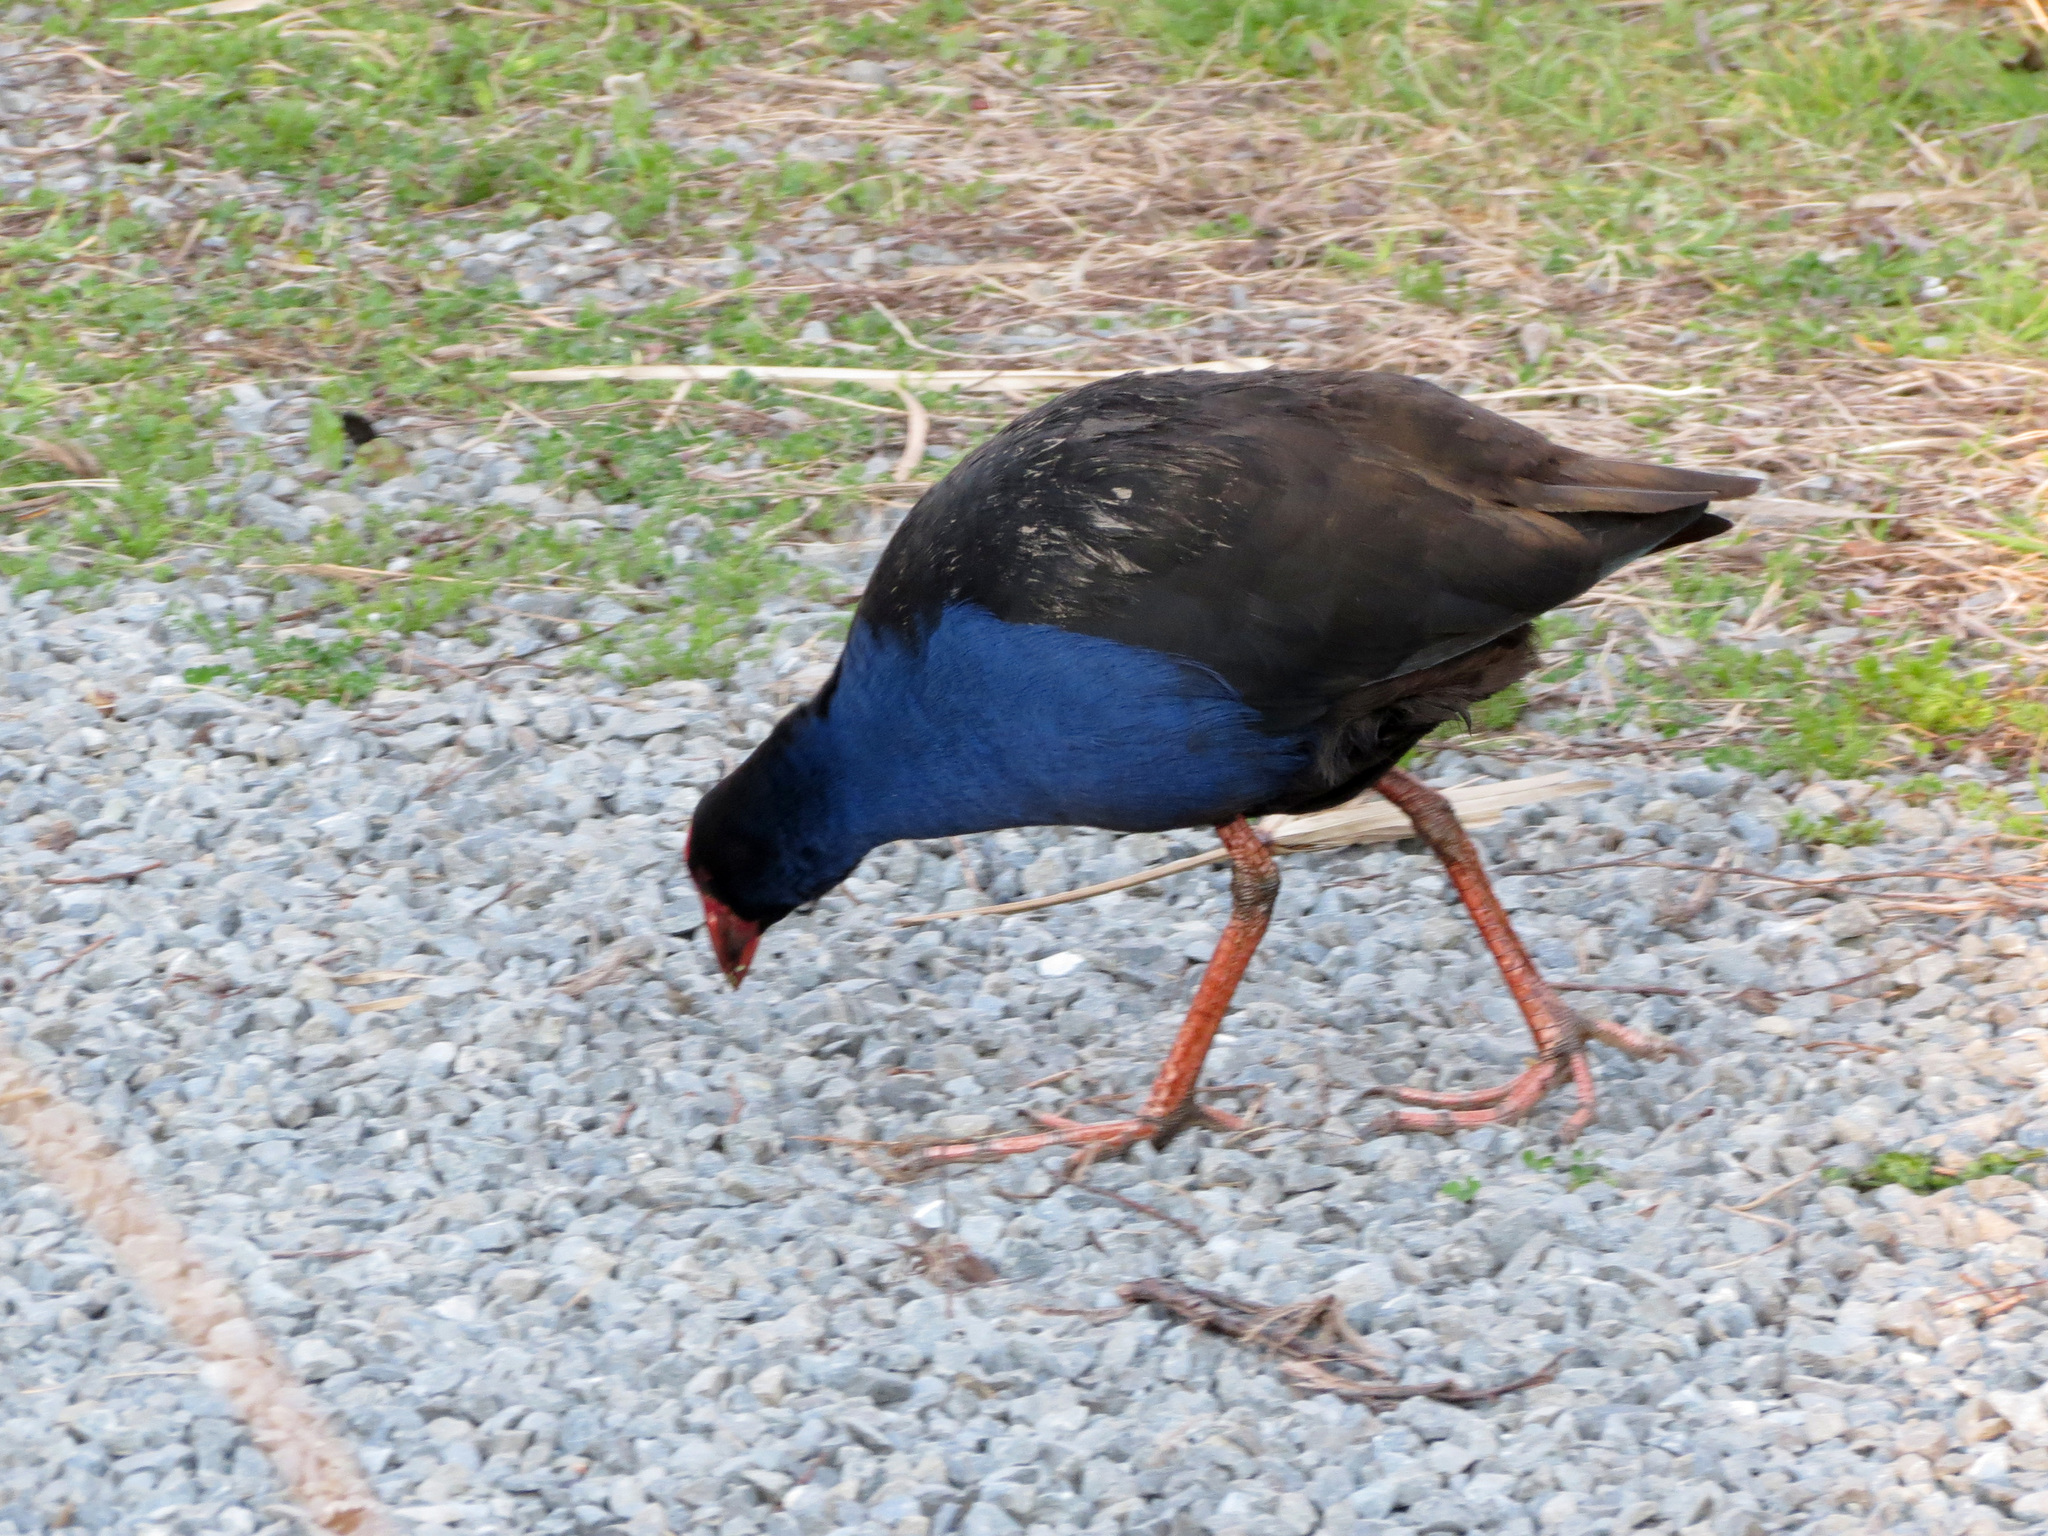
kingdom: Animalia
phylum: Chordata
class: Aves
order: Gruiformes
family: Rallidae
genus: Porphyrio
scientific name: Porphyrio melanotus
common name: Australasian swamphen
